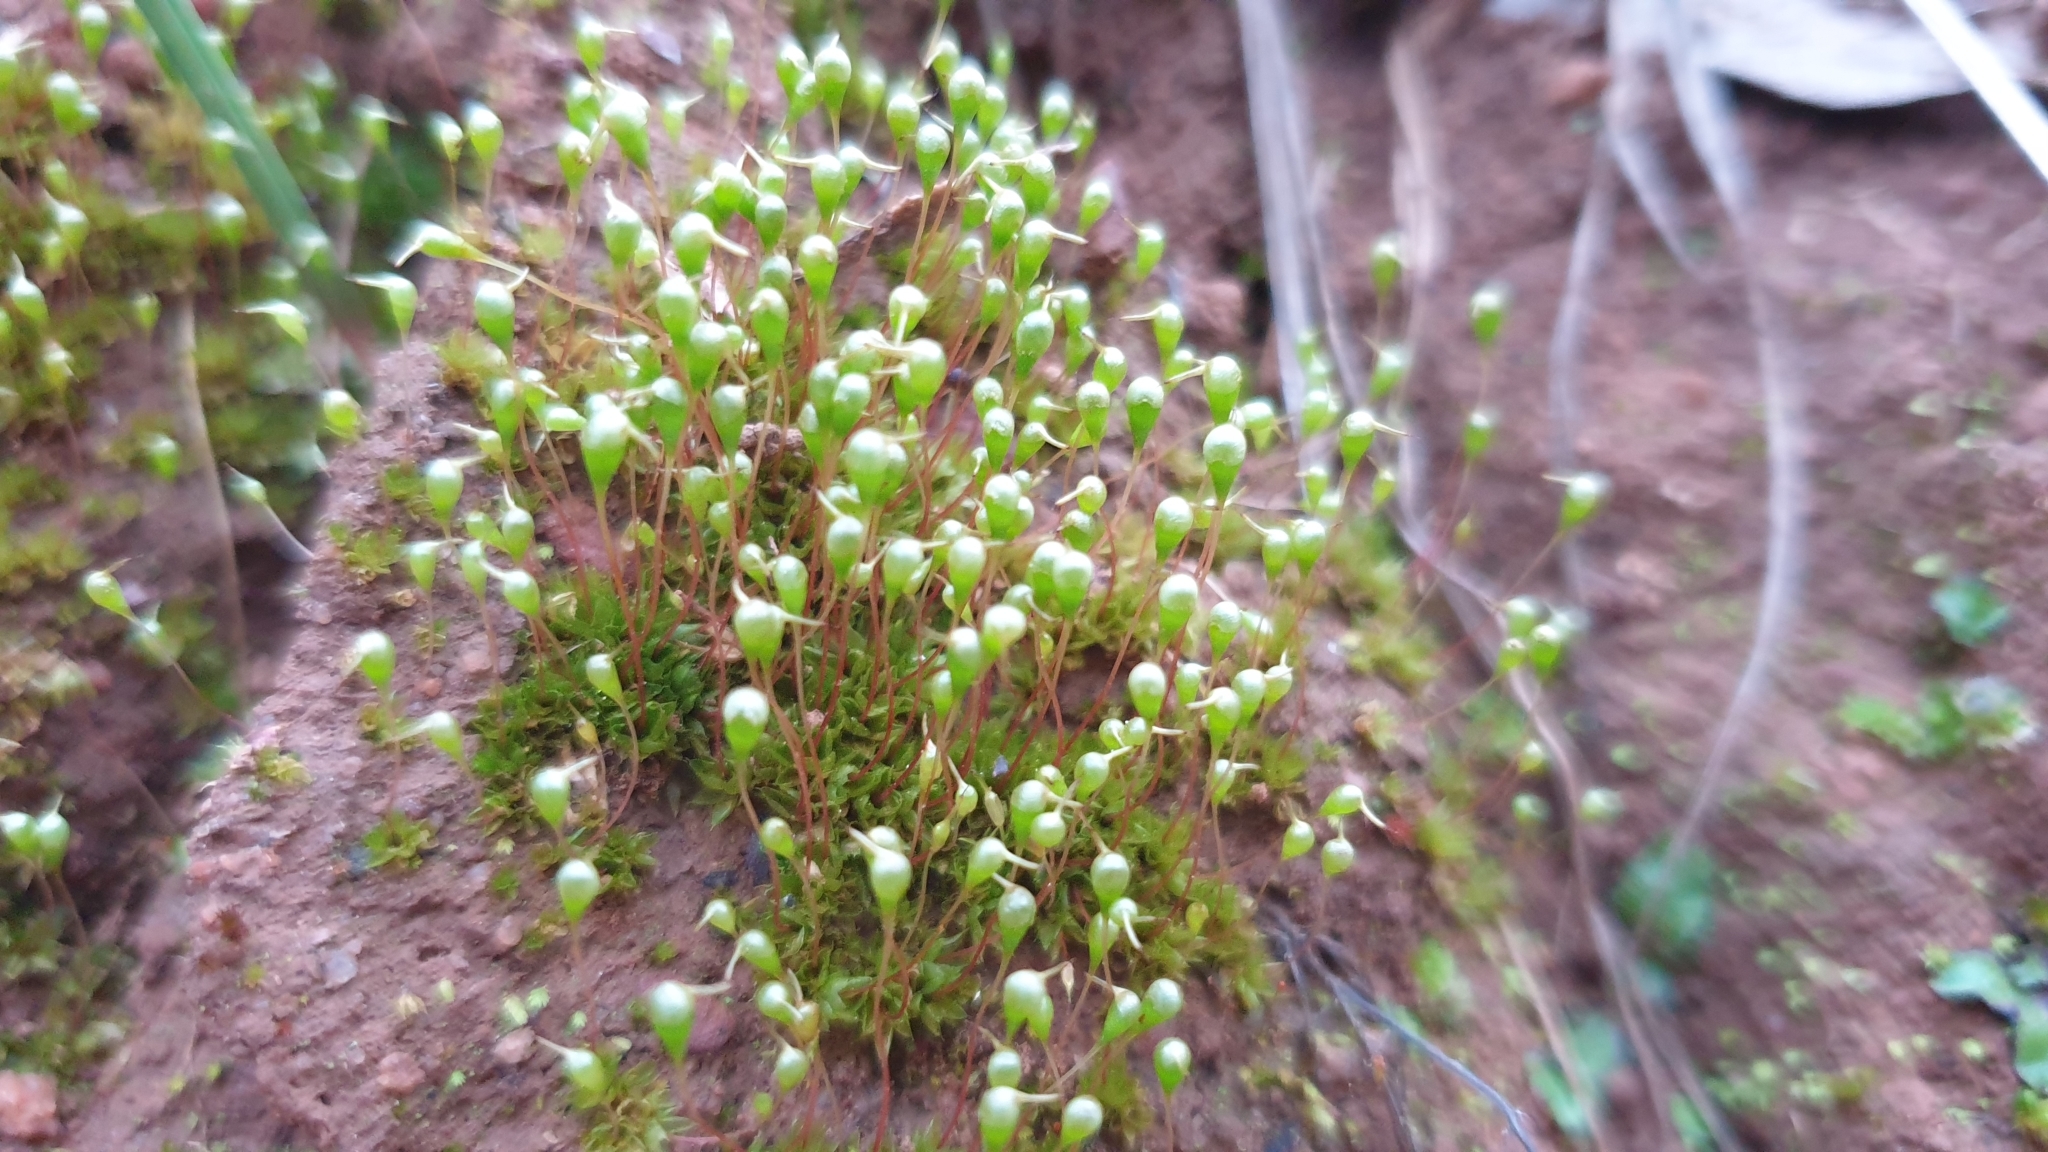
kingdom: Plantae
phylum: Bryophyta
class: Bryopsida
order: Funariales
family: Funariaceae
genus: Entosthodon
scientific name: Entosthodon subnudus
